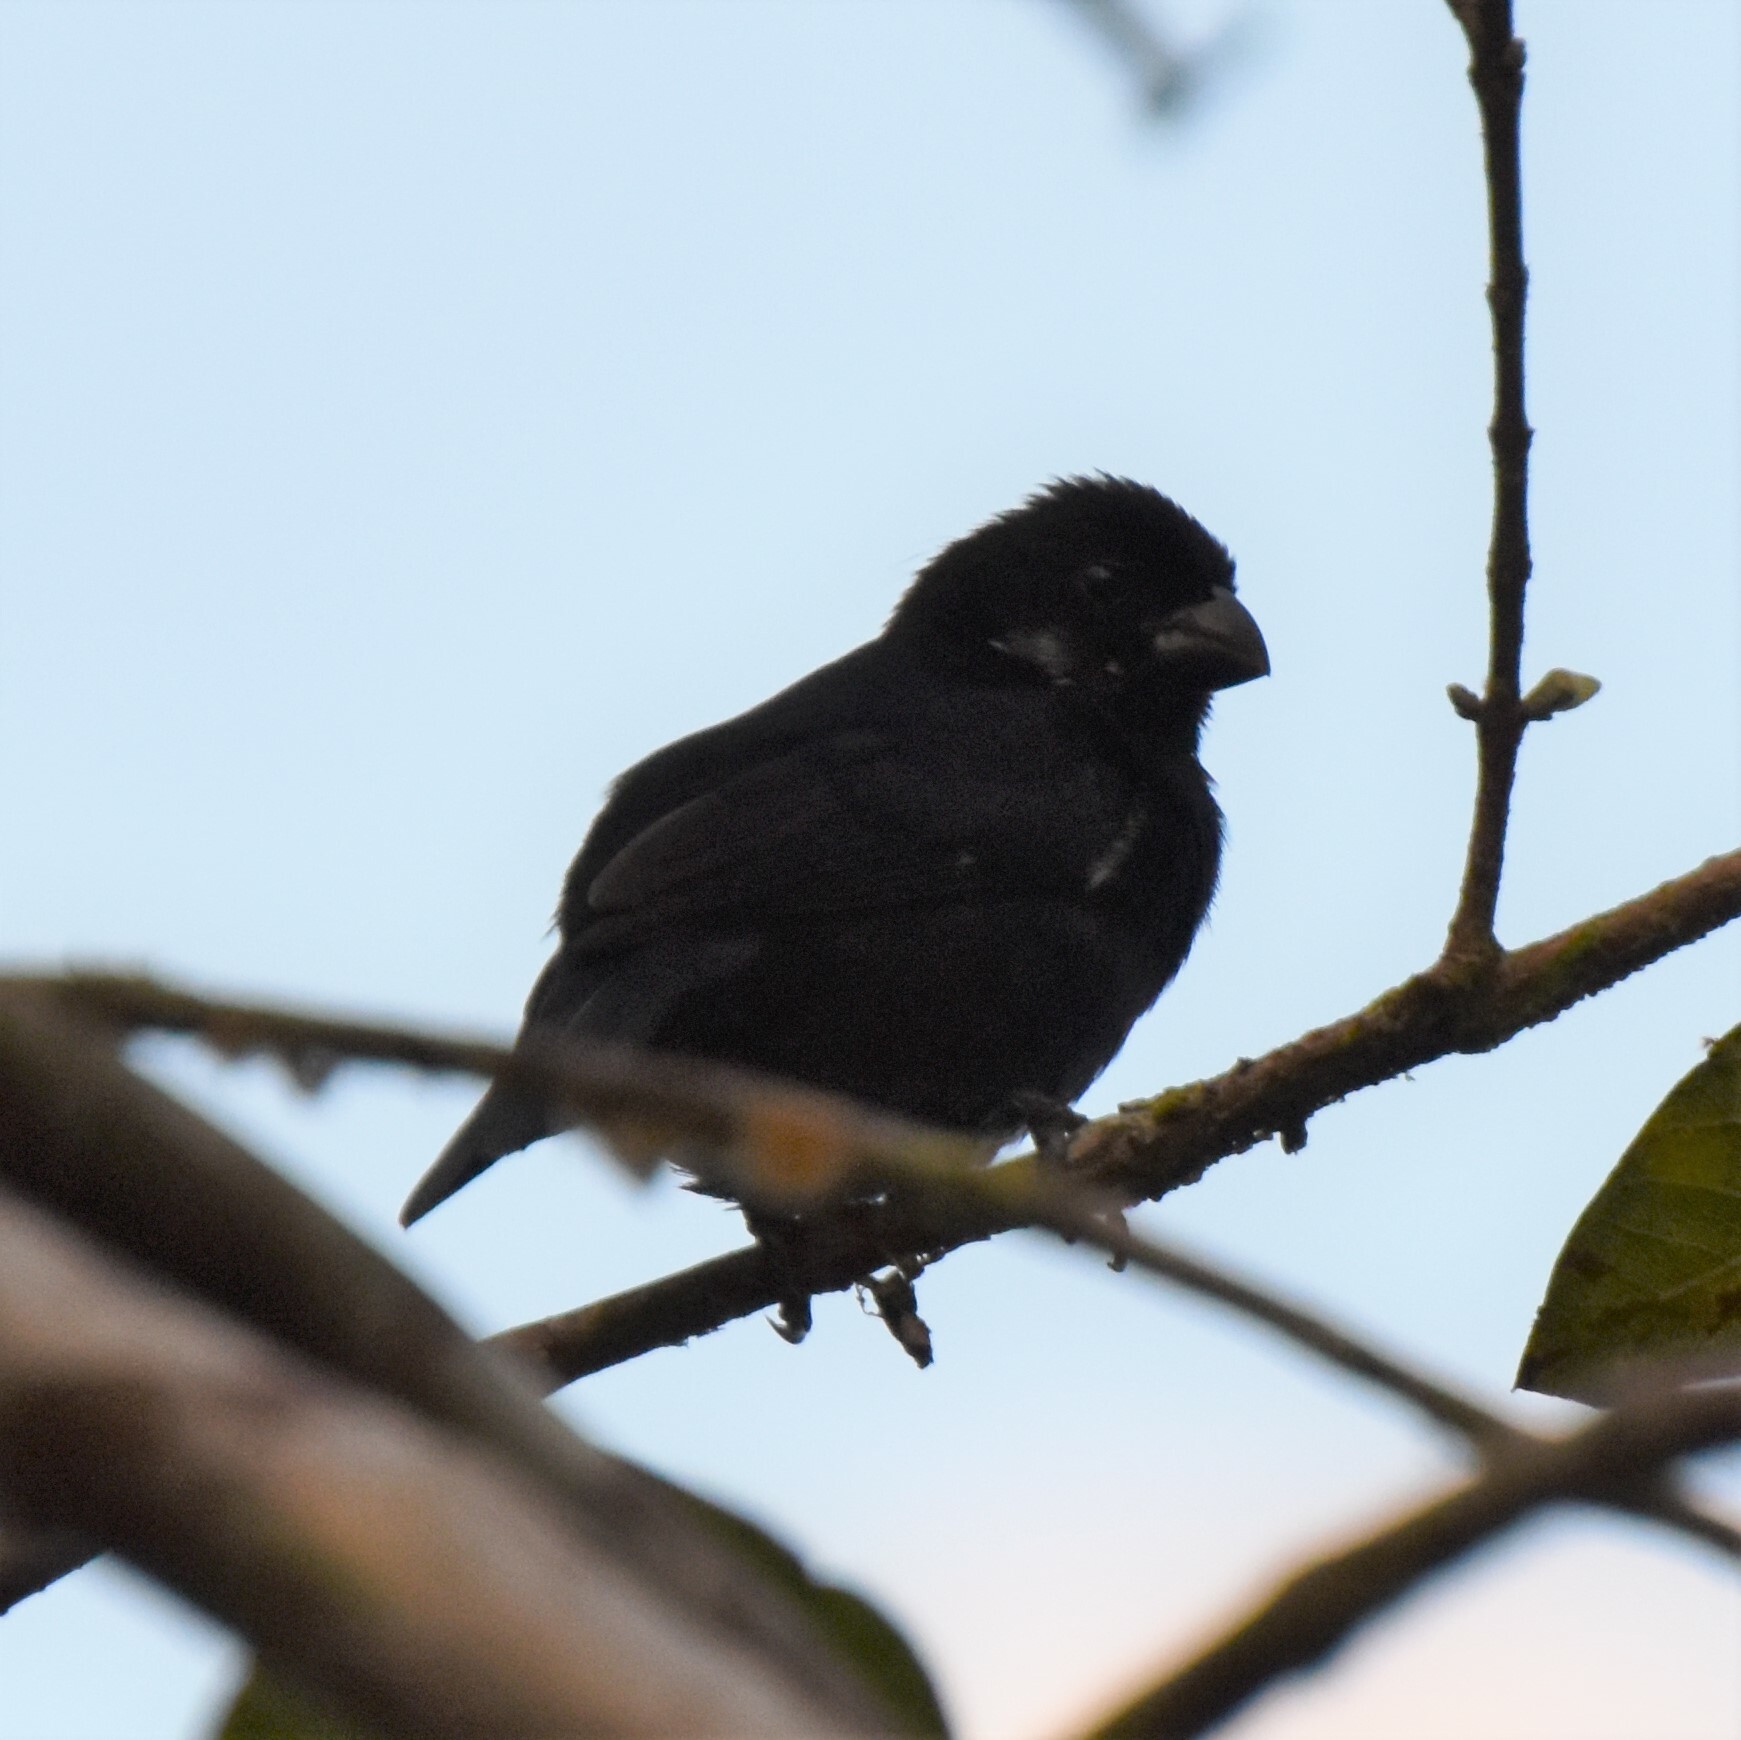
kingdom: Animalia
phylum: Chordata
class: Aves
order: Passeriformes
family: Thraupidae
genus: Sporophila
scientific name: Sporophila corvina
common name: Variable seedeater
